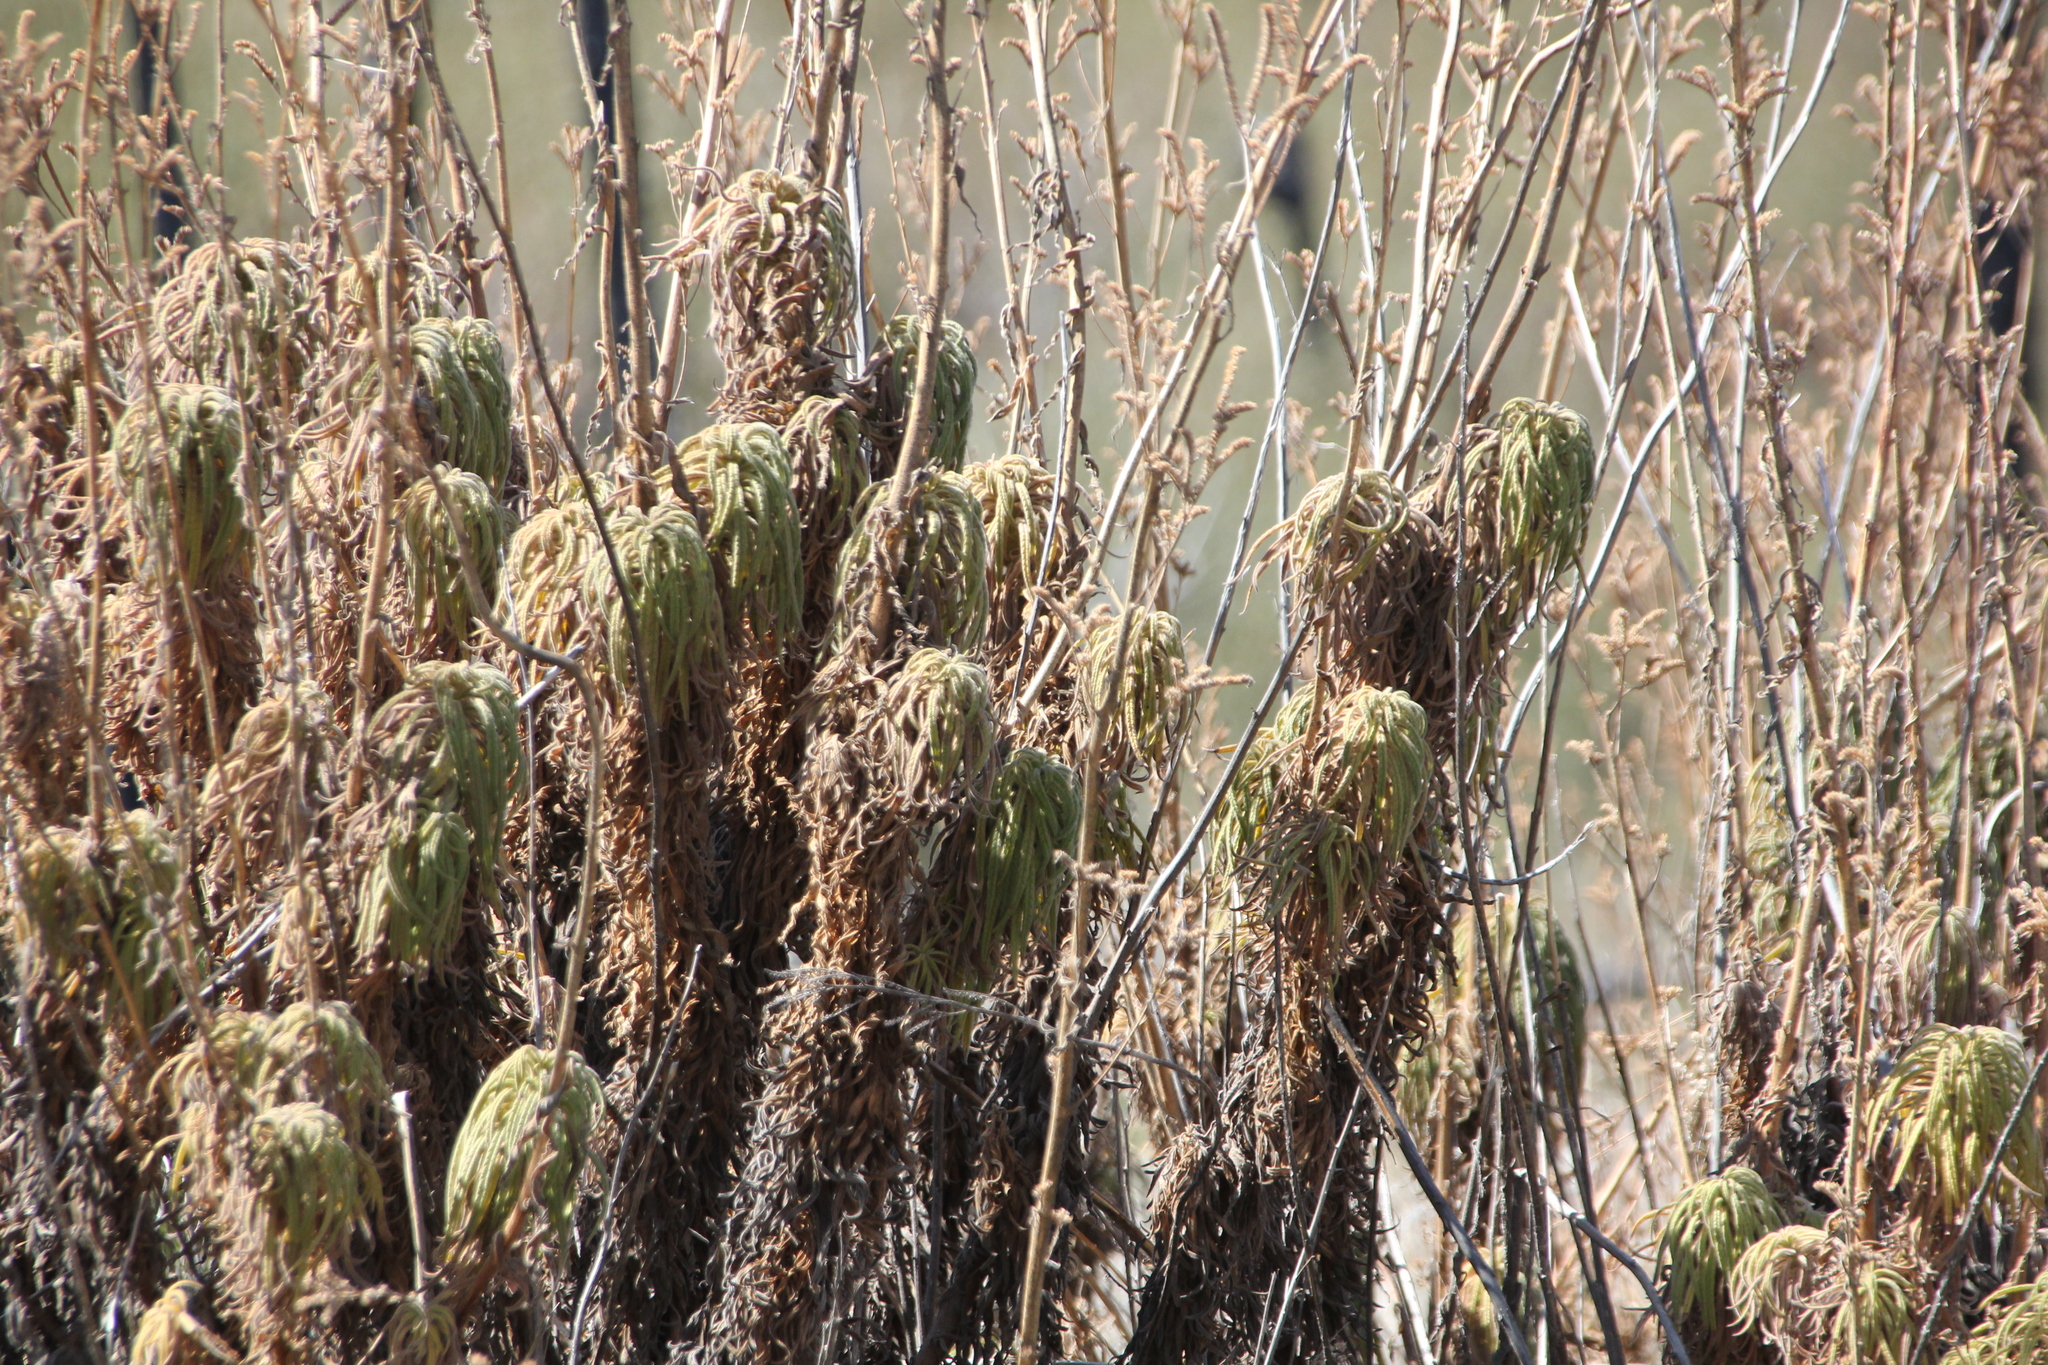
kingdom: Plantae
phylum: Tracheophyta
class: Magnoliopsida
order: Boraginales
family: Namaceae
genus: Turricula
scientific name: Turricula parryi
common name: Poodle-dog-bush
